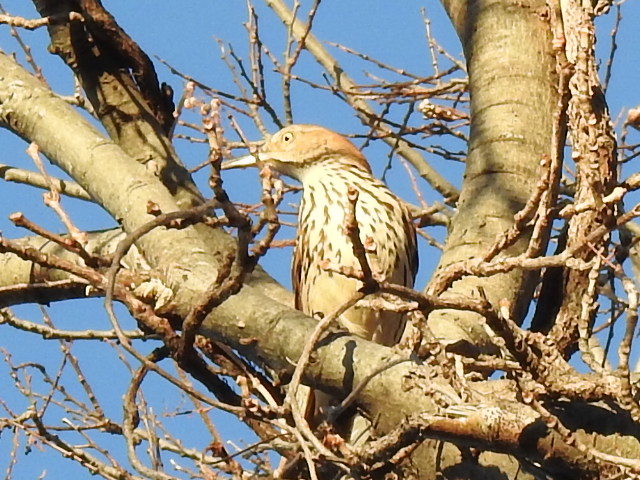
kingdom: Animalia
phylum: Chordata
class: Aves
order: Passeriformes
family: Mimidae
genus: Toxostoma
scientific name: Toxostoma rufum
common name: Brown thrasher
